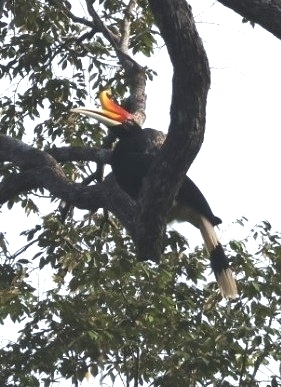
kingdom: Animalia
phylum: Chordata
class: Aves
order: Bucerotiformes
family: Bucerotidae
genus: Buceros
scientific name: Buceros rhinoceros
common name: Rhinoceros hornbill
